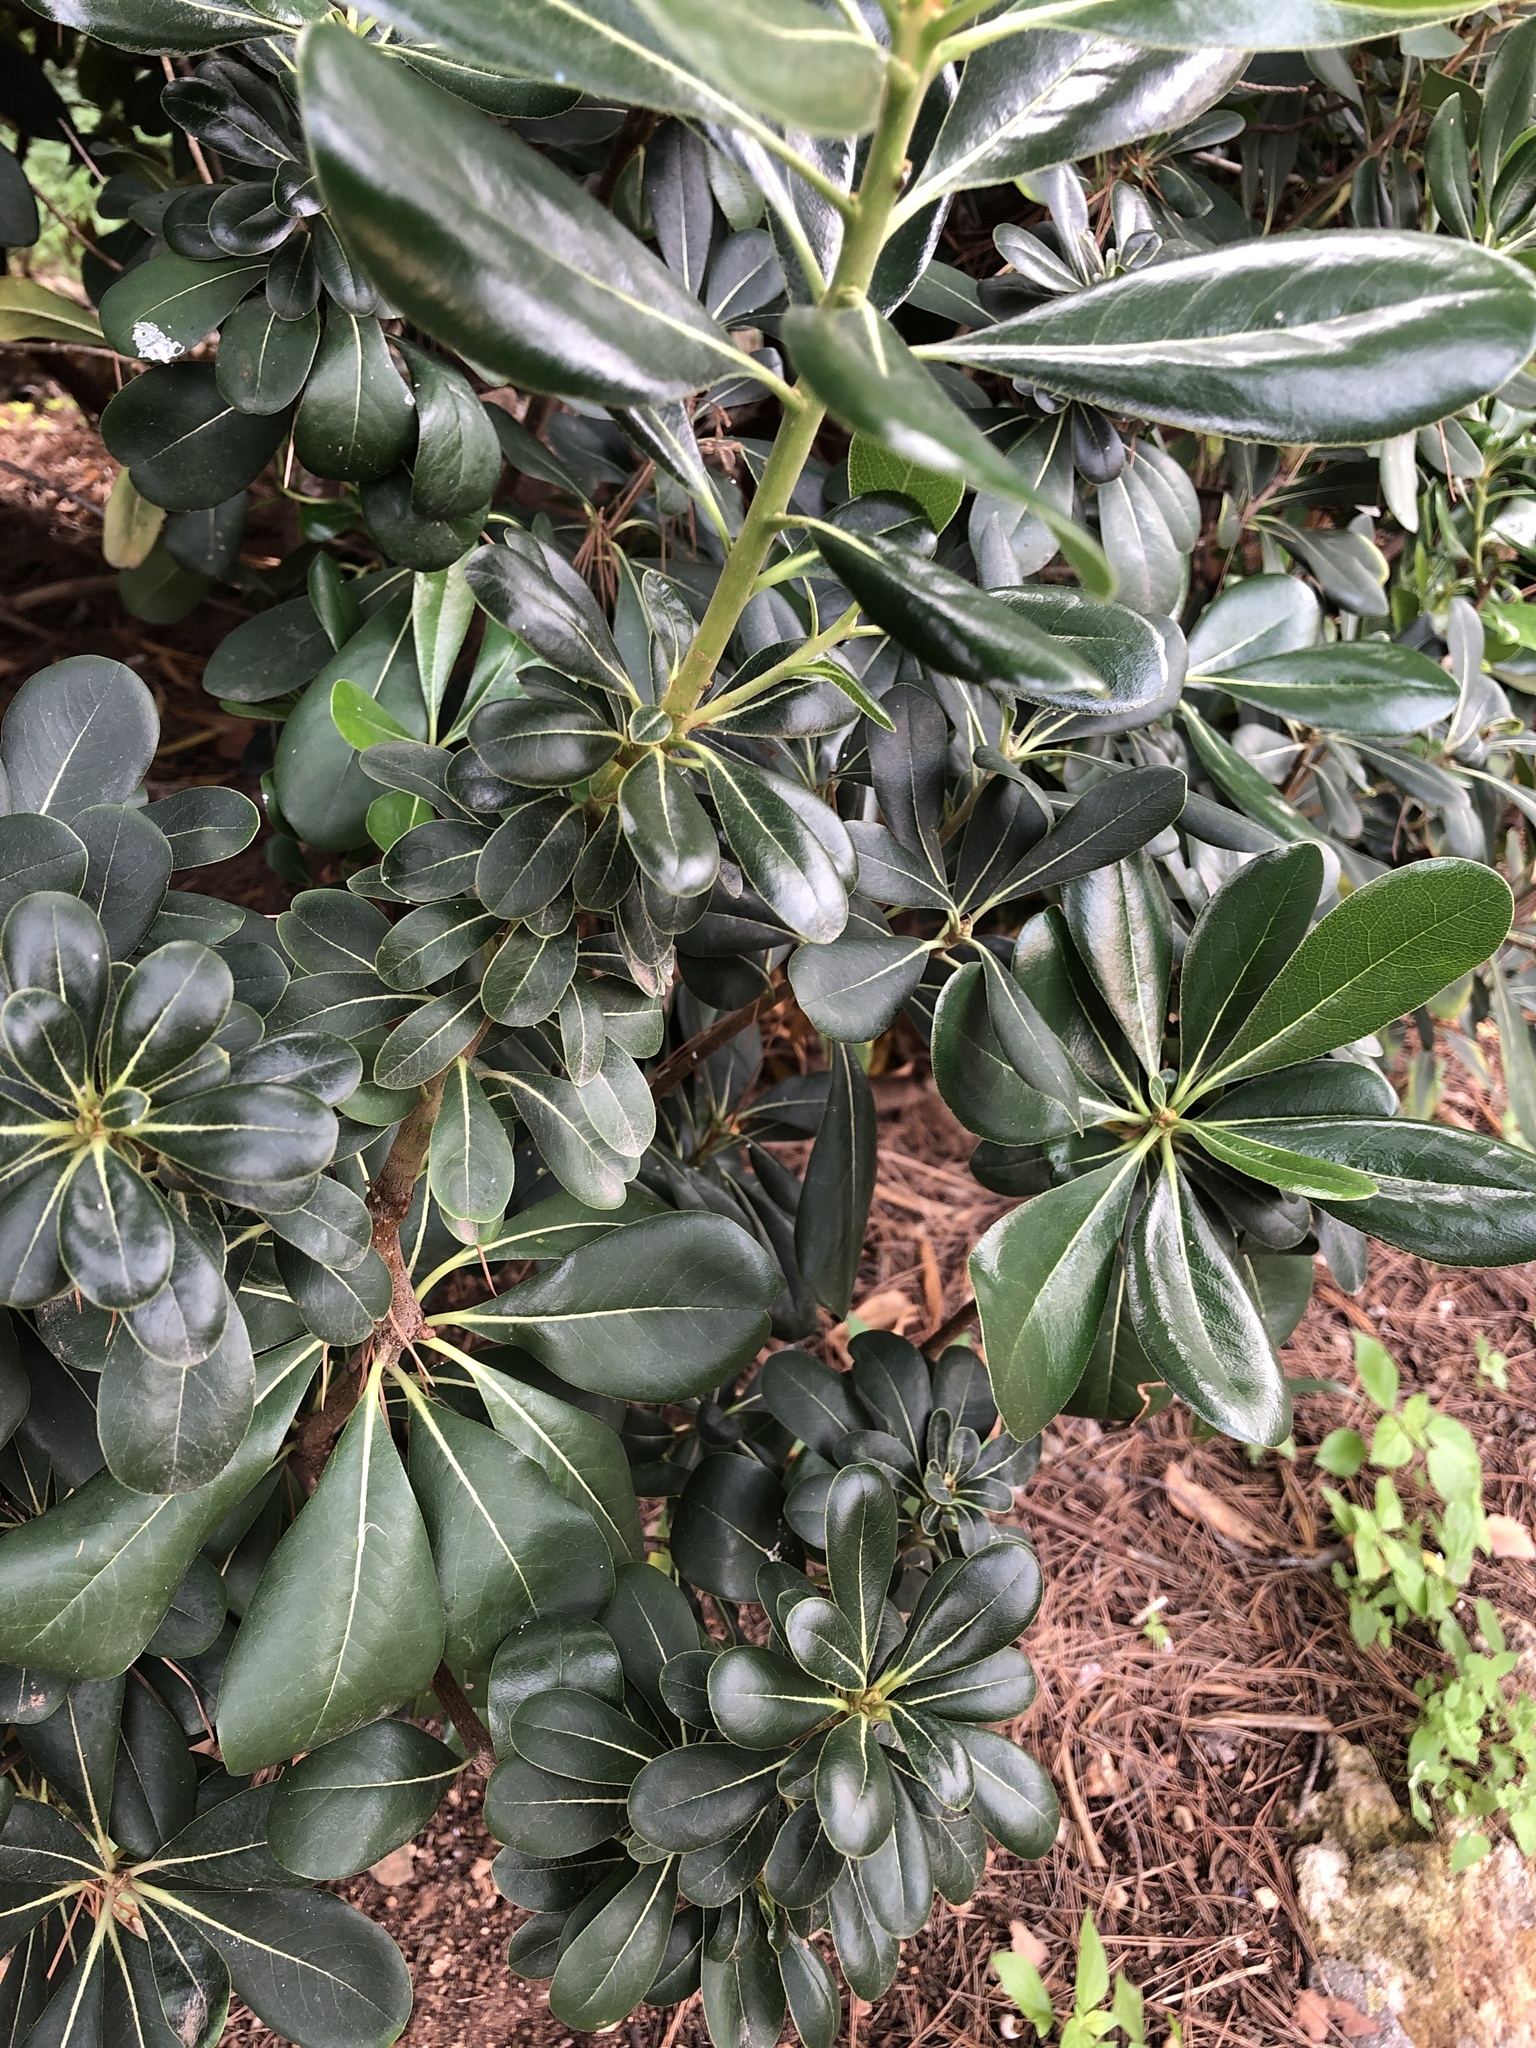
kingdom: Plantae
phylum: Tracheophyta
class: Magnoliopsida
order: Apiales
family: Pittosporaceae
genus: Pittosporum
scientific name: Pittosporum tobira
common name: Japanese cheesewood
